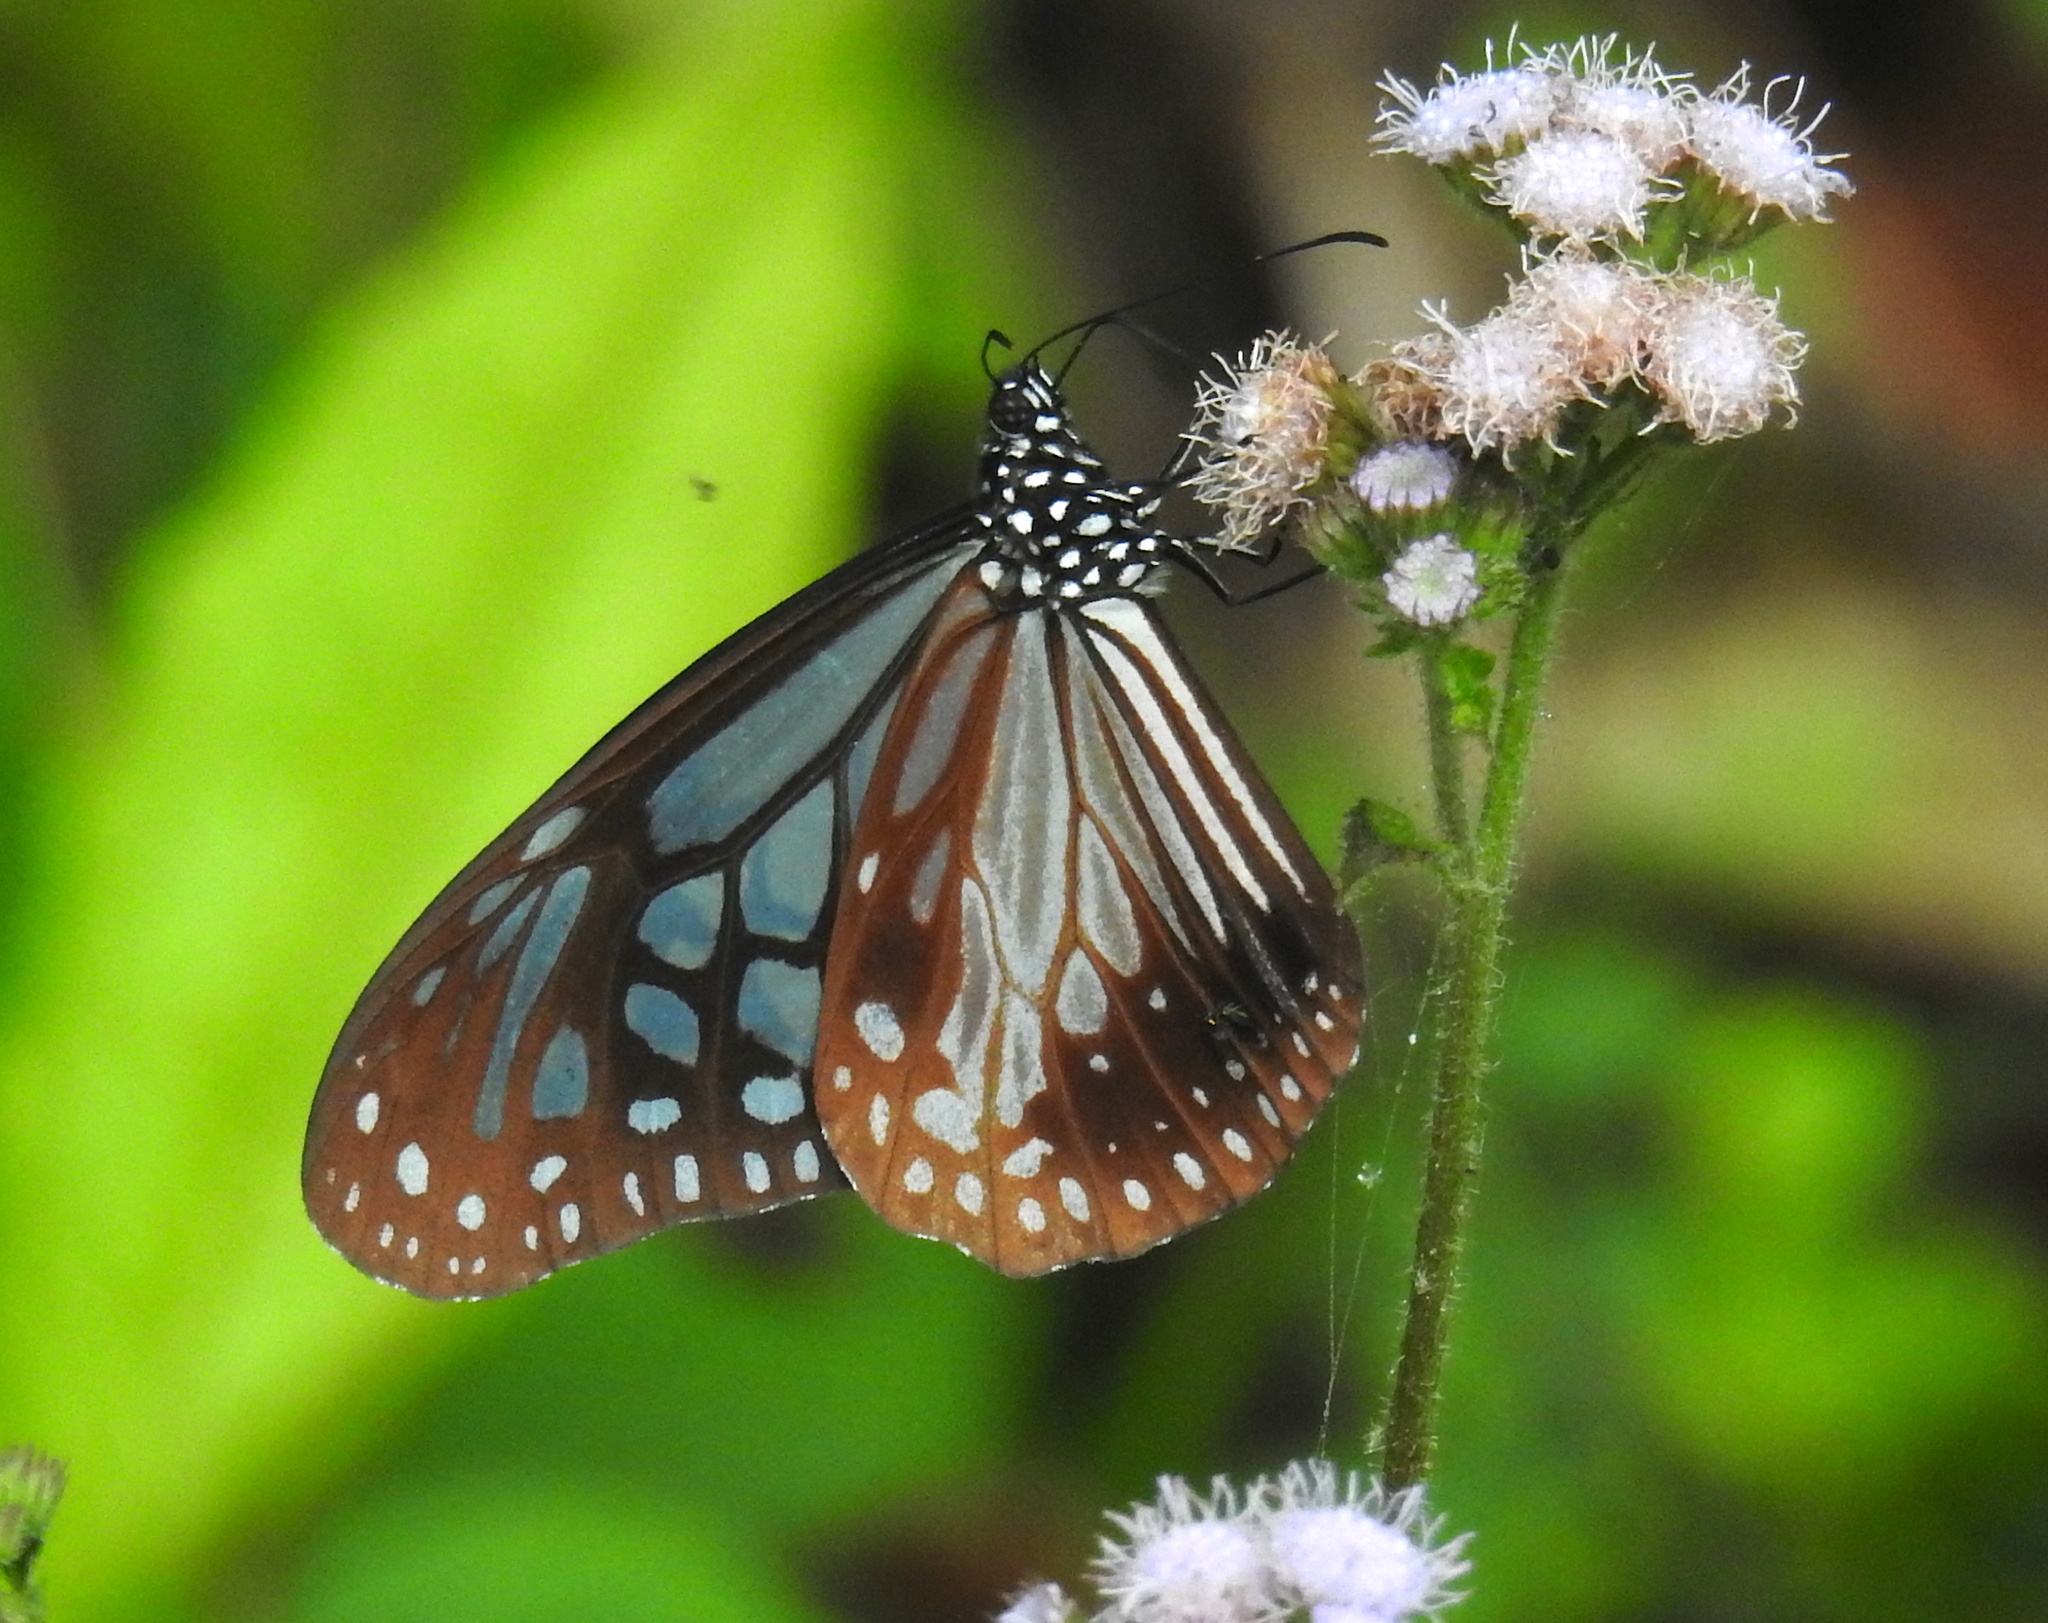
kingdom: Animalia
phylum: Arthropoda
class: Insecta
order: Lepidoptera
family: Nymphalidae
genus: Parantica
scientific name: Parantica melaneus
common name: Chocolate tiger
